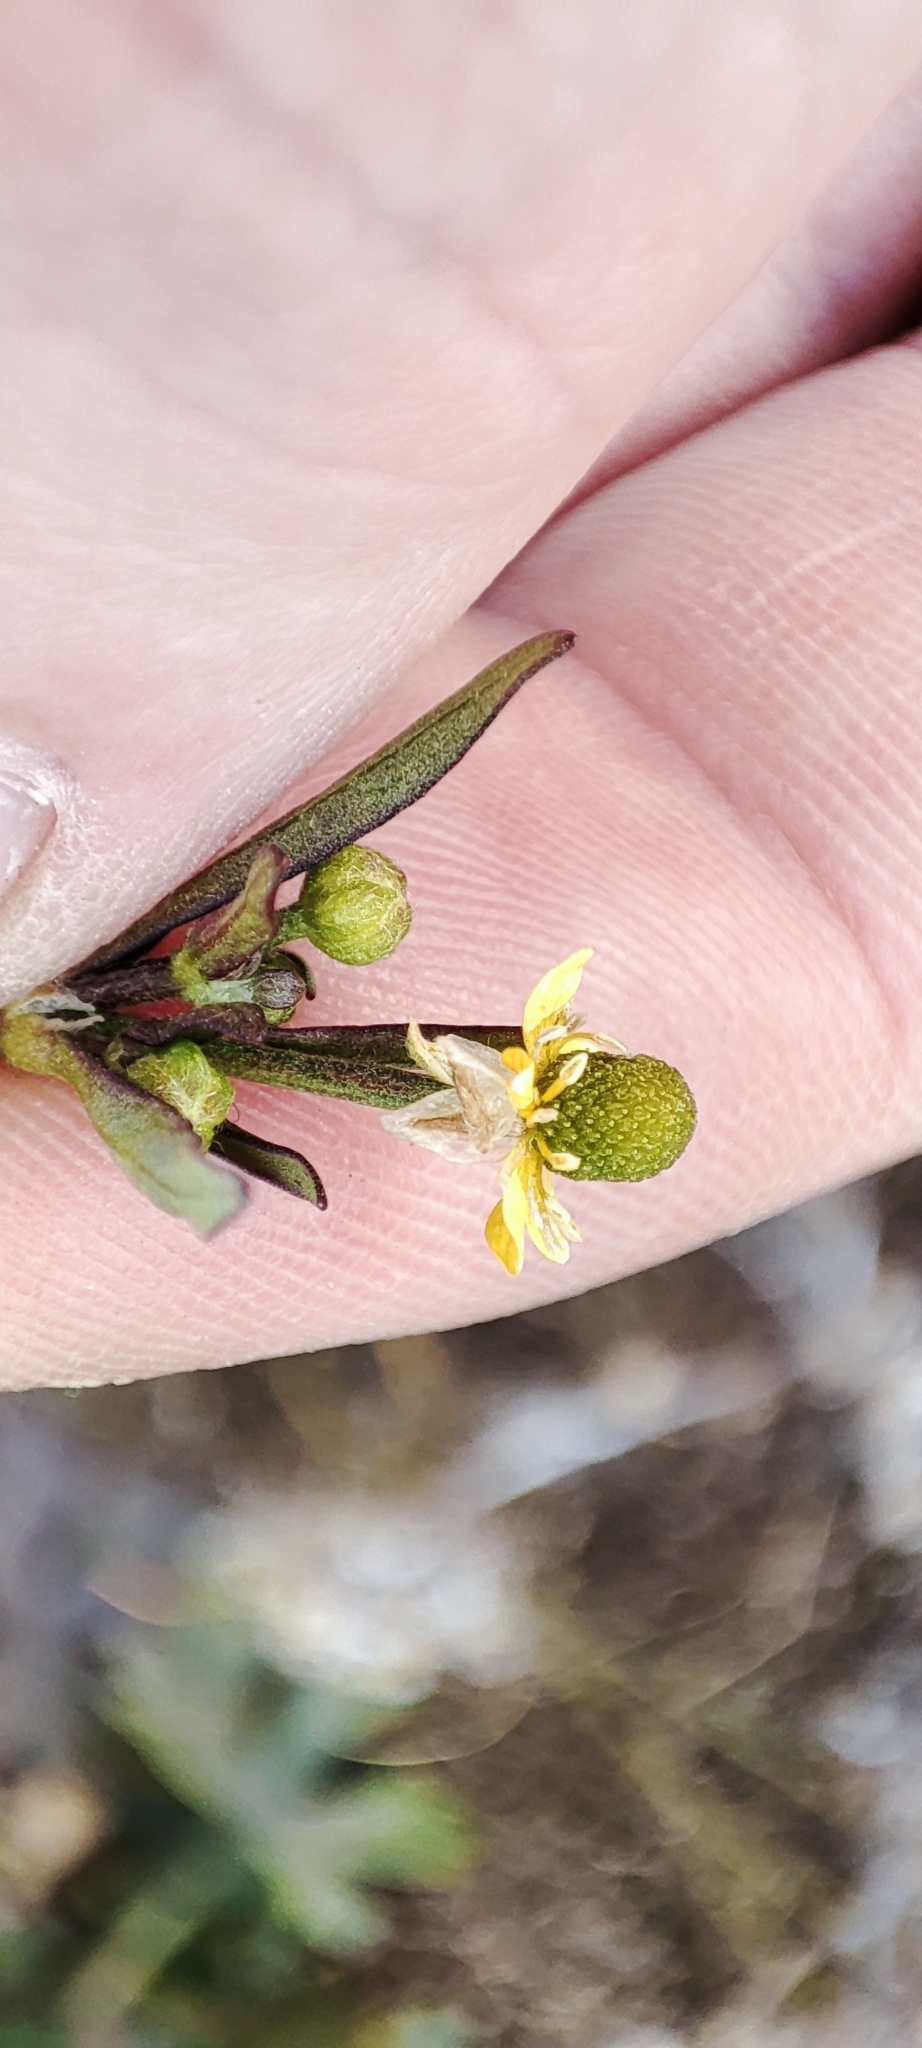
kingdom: Plantae
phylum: Tracheophyta
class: Magnoliopsida
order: Ranunculales
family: Ranunculaceae
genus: Ranunculus
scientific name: Ranunculus sceleratus
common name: Celery-leaved buttercup
